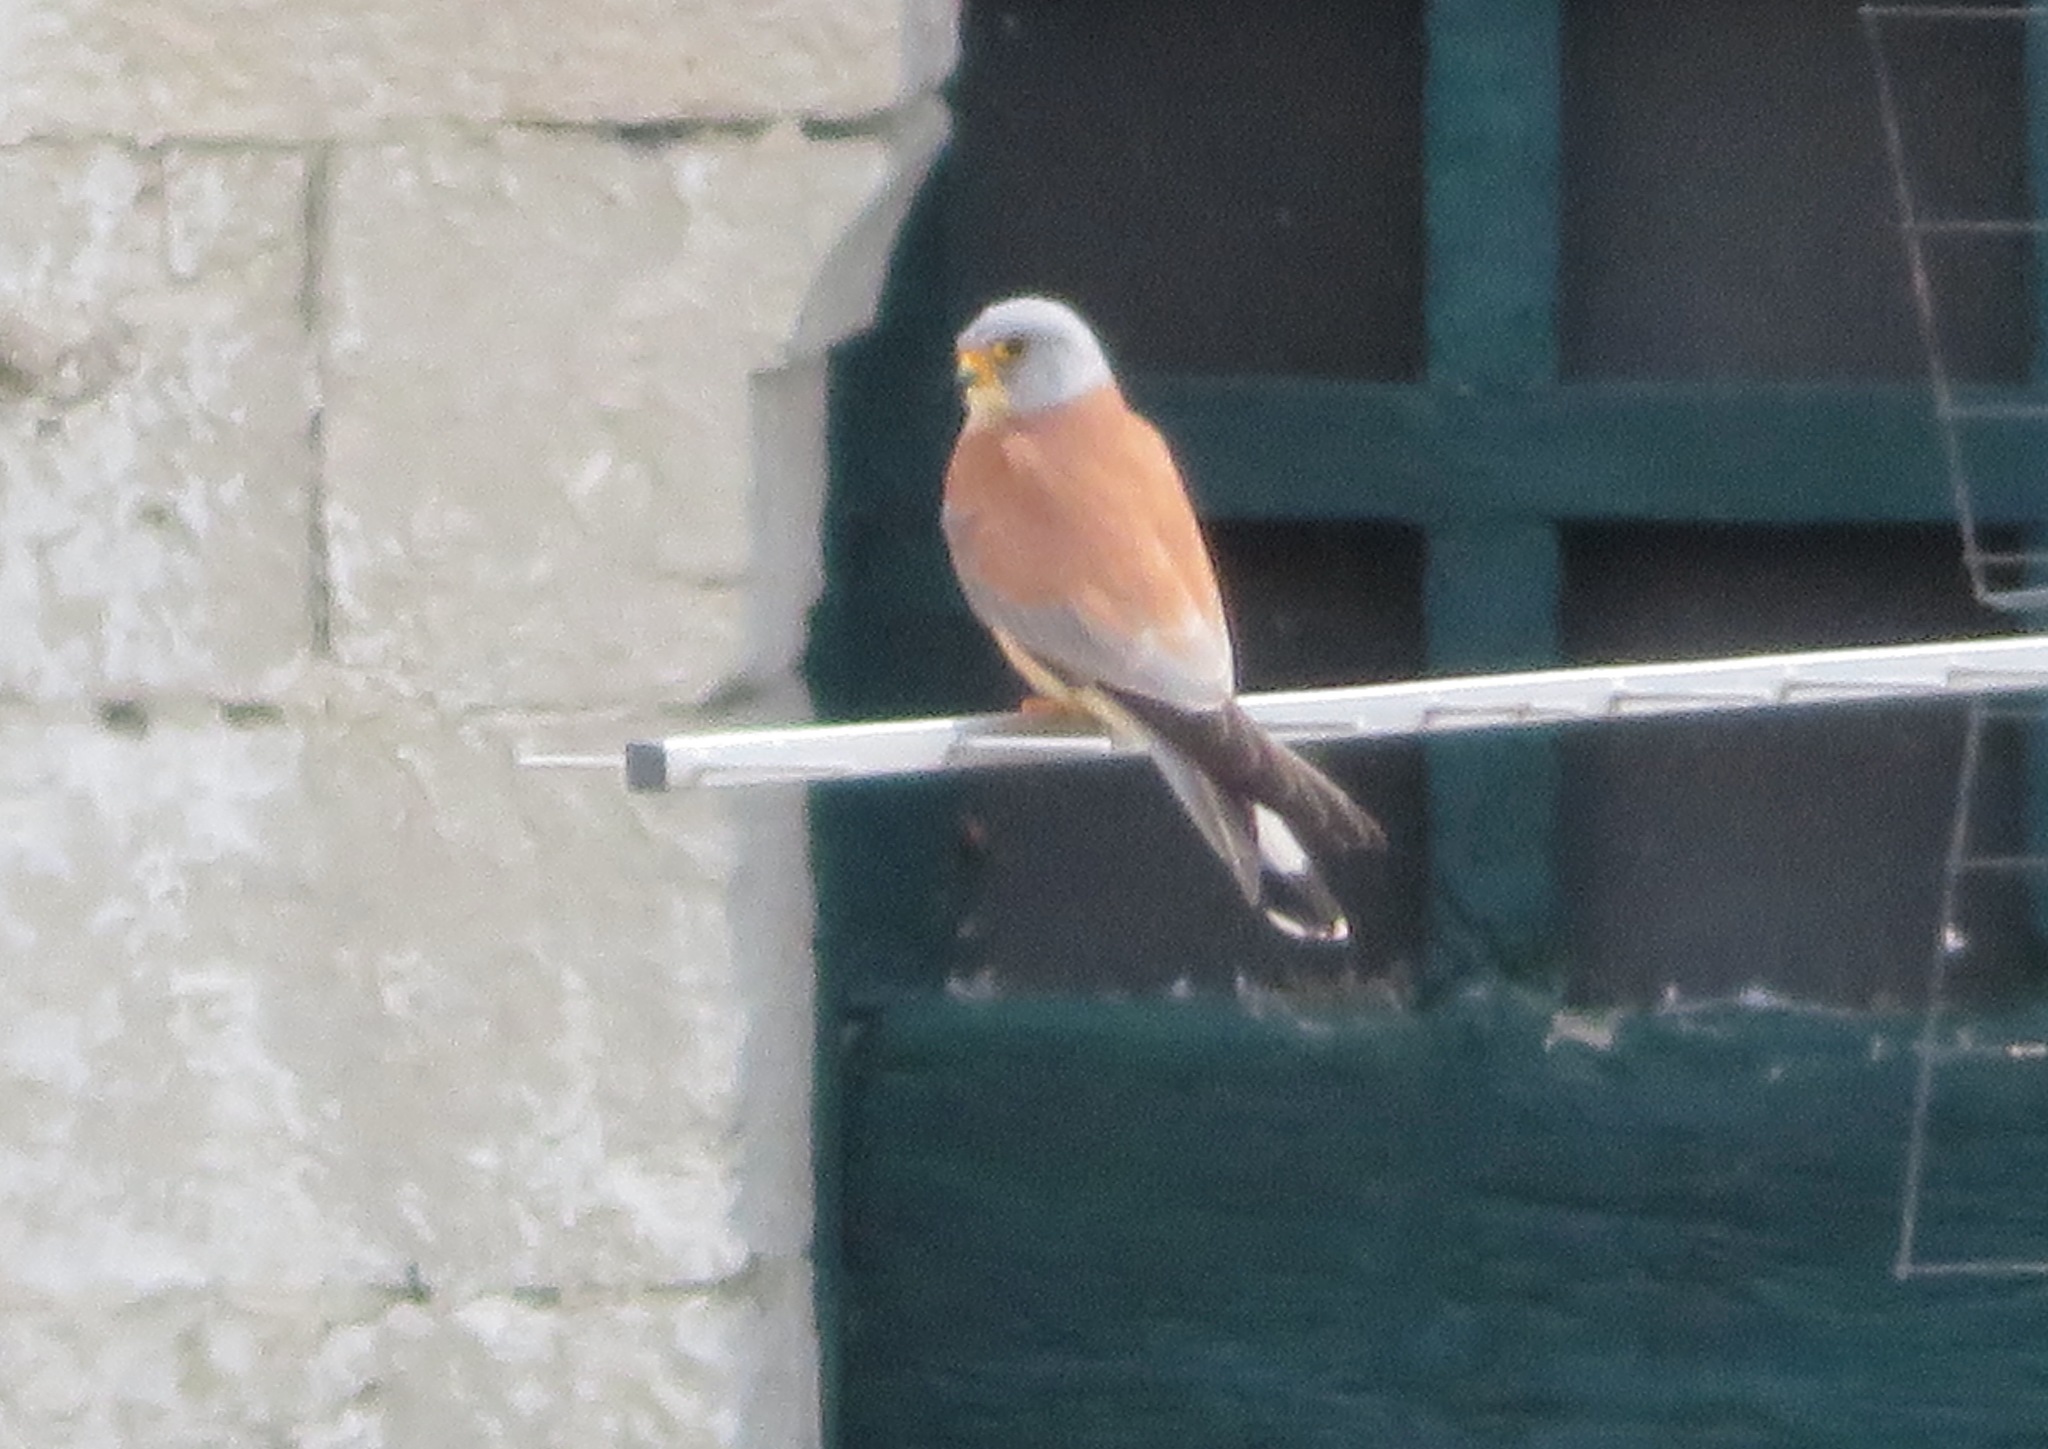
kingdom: Animalia
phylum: Chordata
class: Aves
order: Falconiformes
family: Falconidae
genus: Falco
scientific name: Falco naumanni
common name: Lesser kestrel
